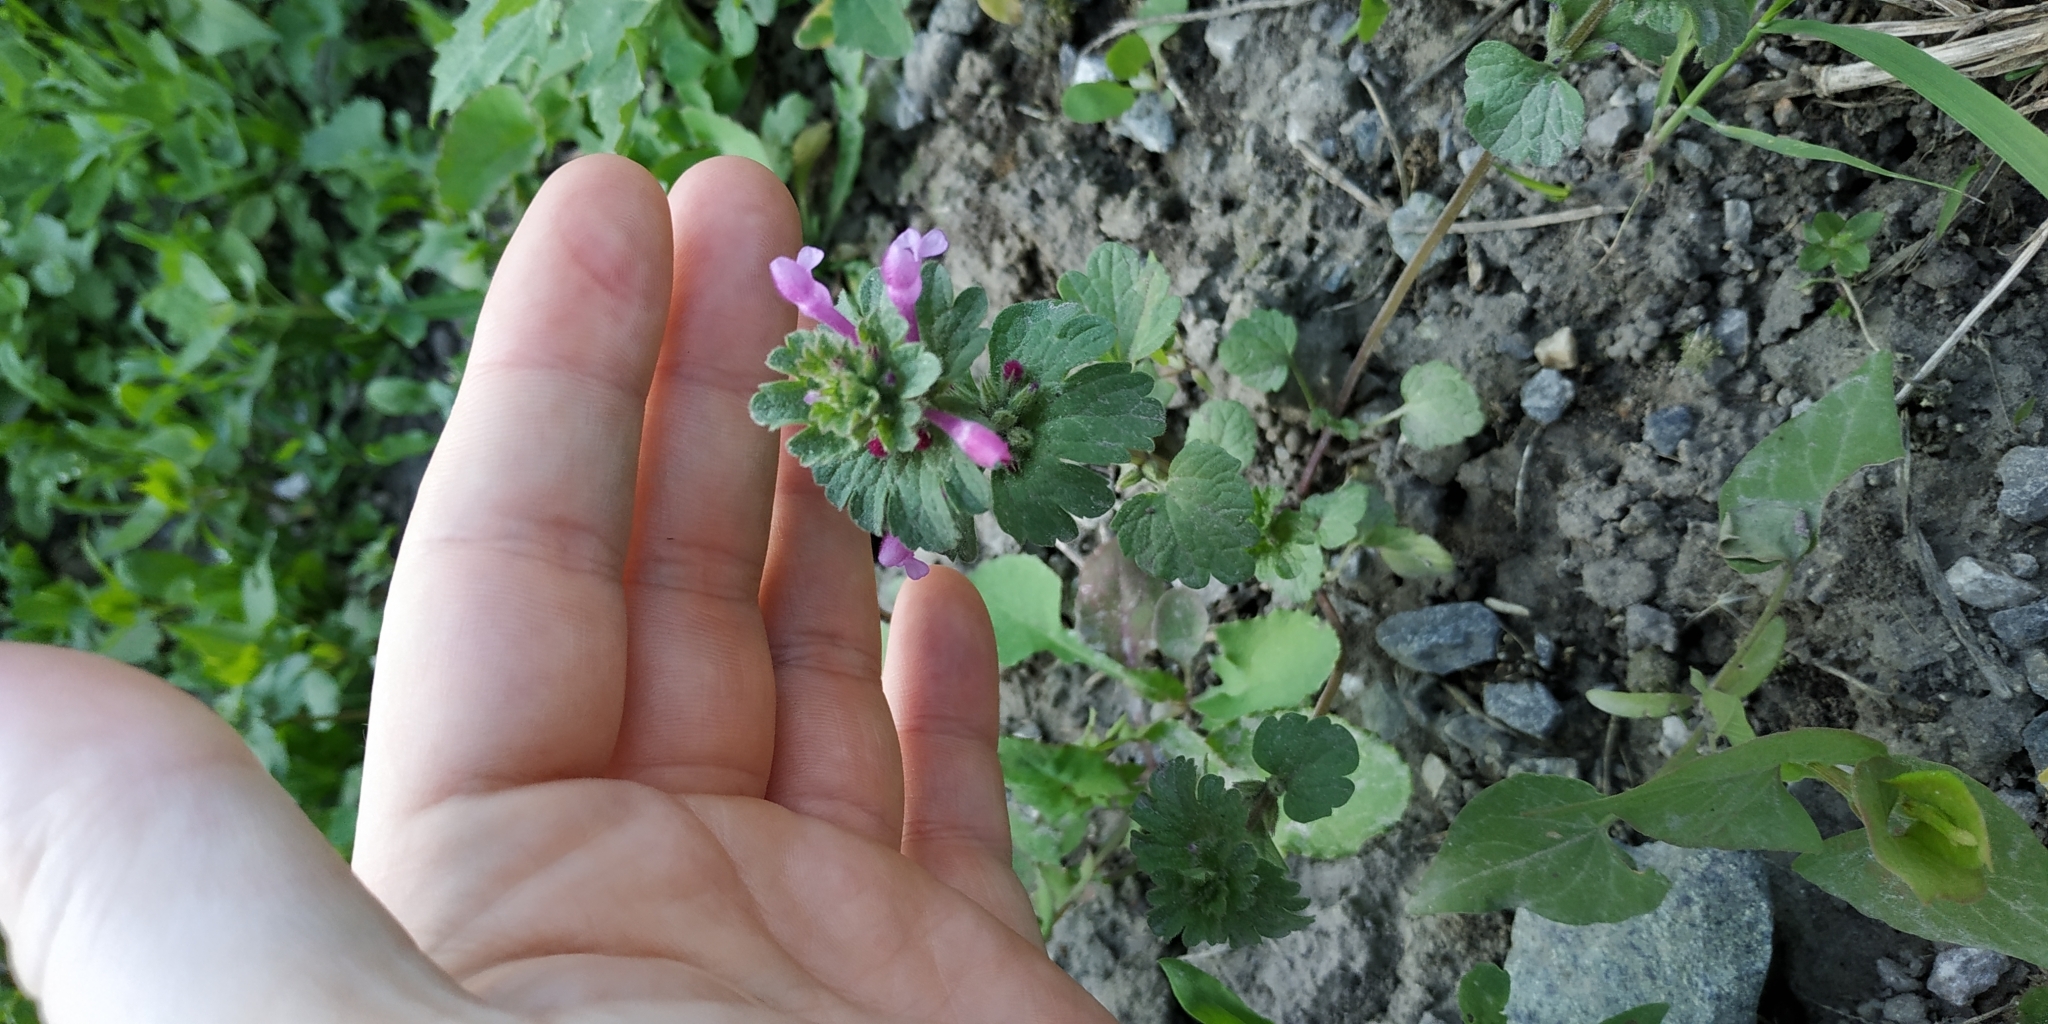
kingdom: Plantae
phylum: Tracheophyta
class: Magnoliopsida
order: Lamiales
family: Lamiaceae
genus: Lamium
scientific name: Lamium amplexicaule
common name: Henbit dead-nettle
